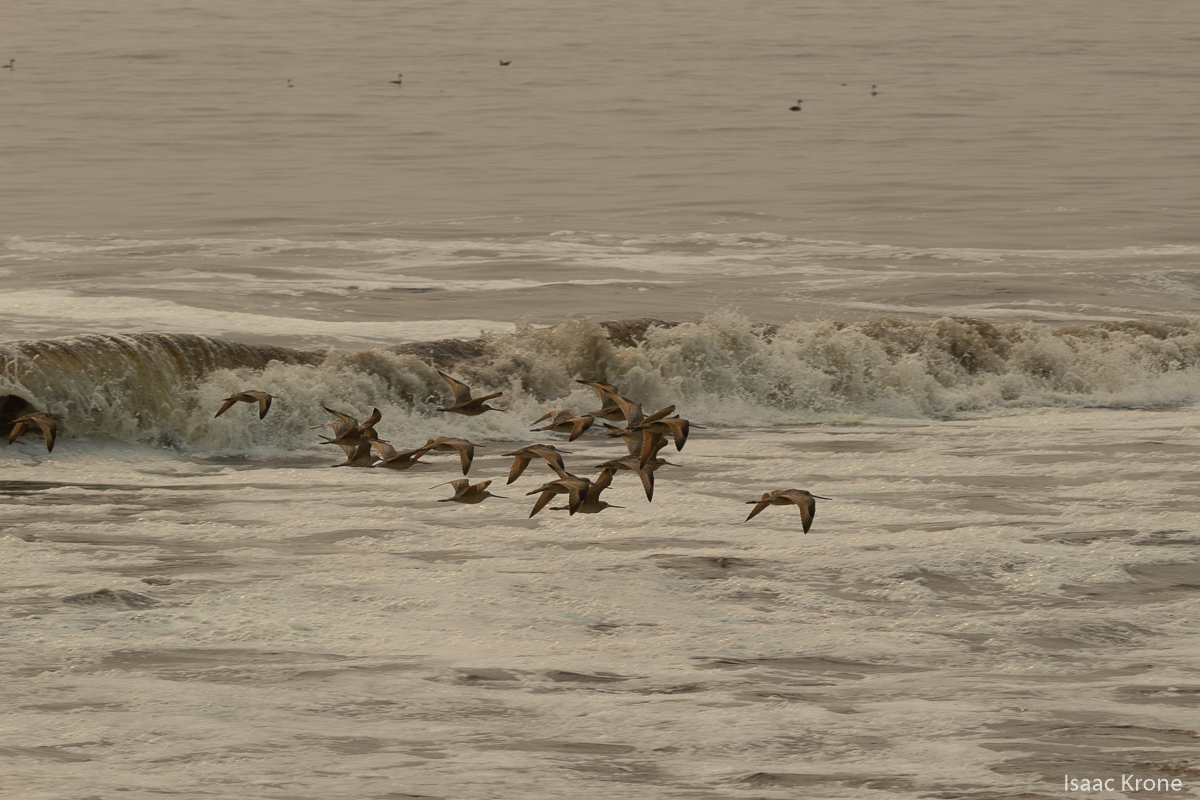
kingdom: Animalia
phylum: Chordata
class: Aves
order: Charadriiformes
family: Scolopacidae
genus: Limosa
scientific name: Limosa fedoa
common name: Marbled godwit
